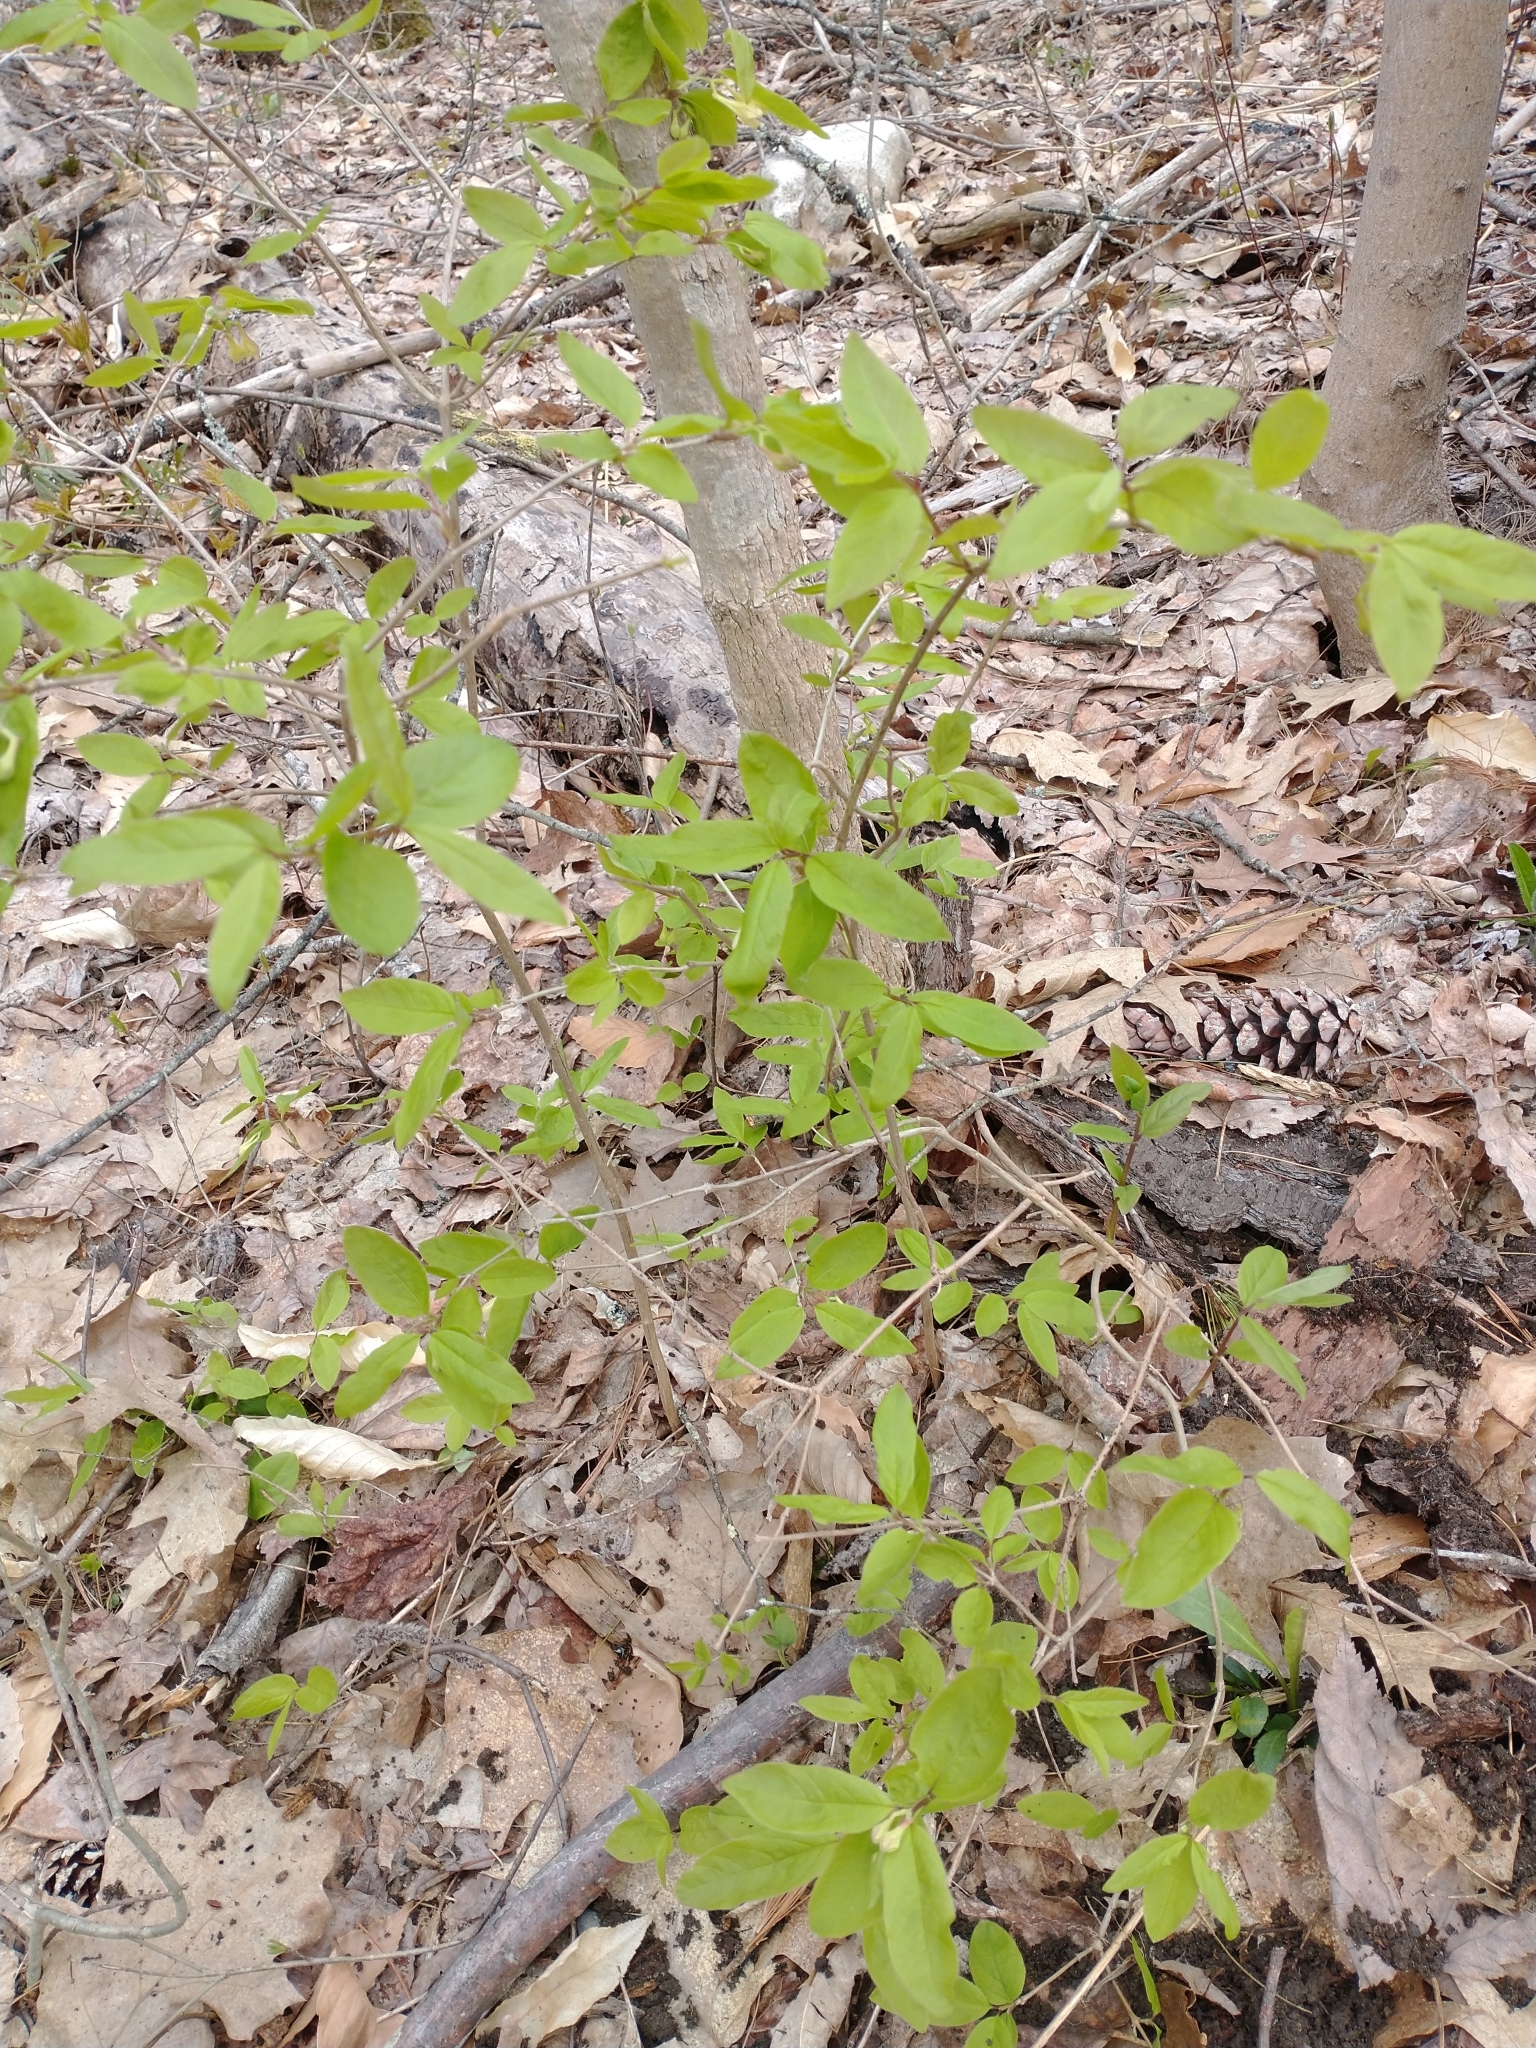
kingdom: Plantae
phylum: Tracheophyta
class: Magnoliopsida
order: Dipsacales
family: Caprifoliaceae
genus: Lonicera
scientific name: Lonicera canadensis
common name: American fly-honeysuckle
